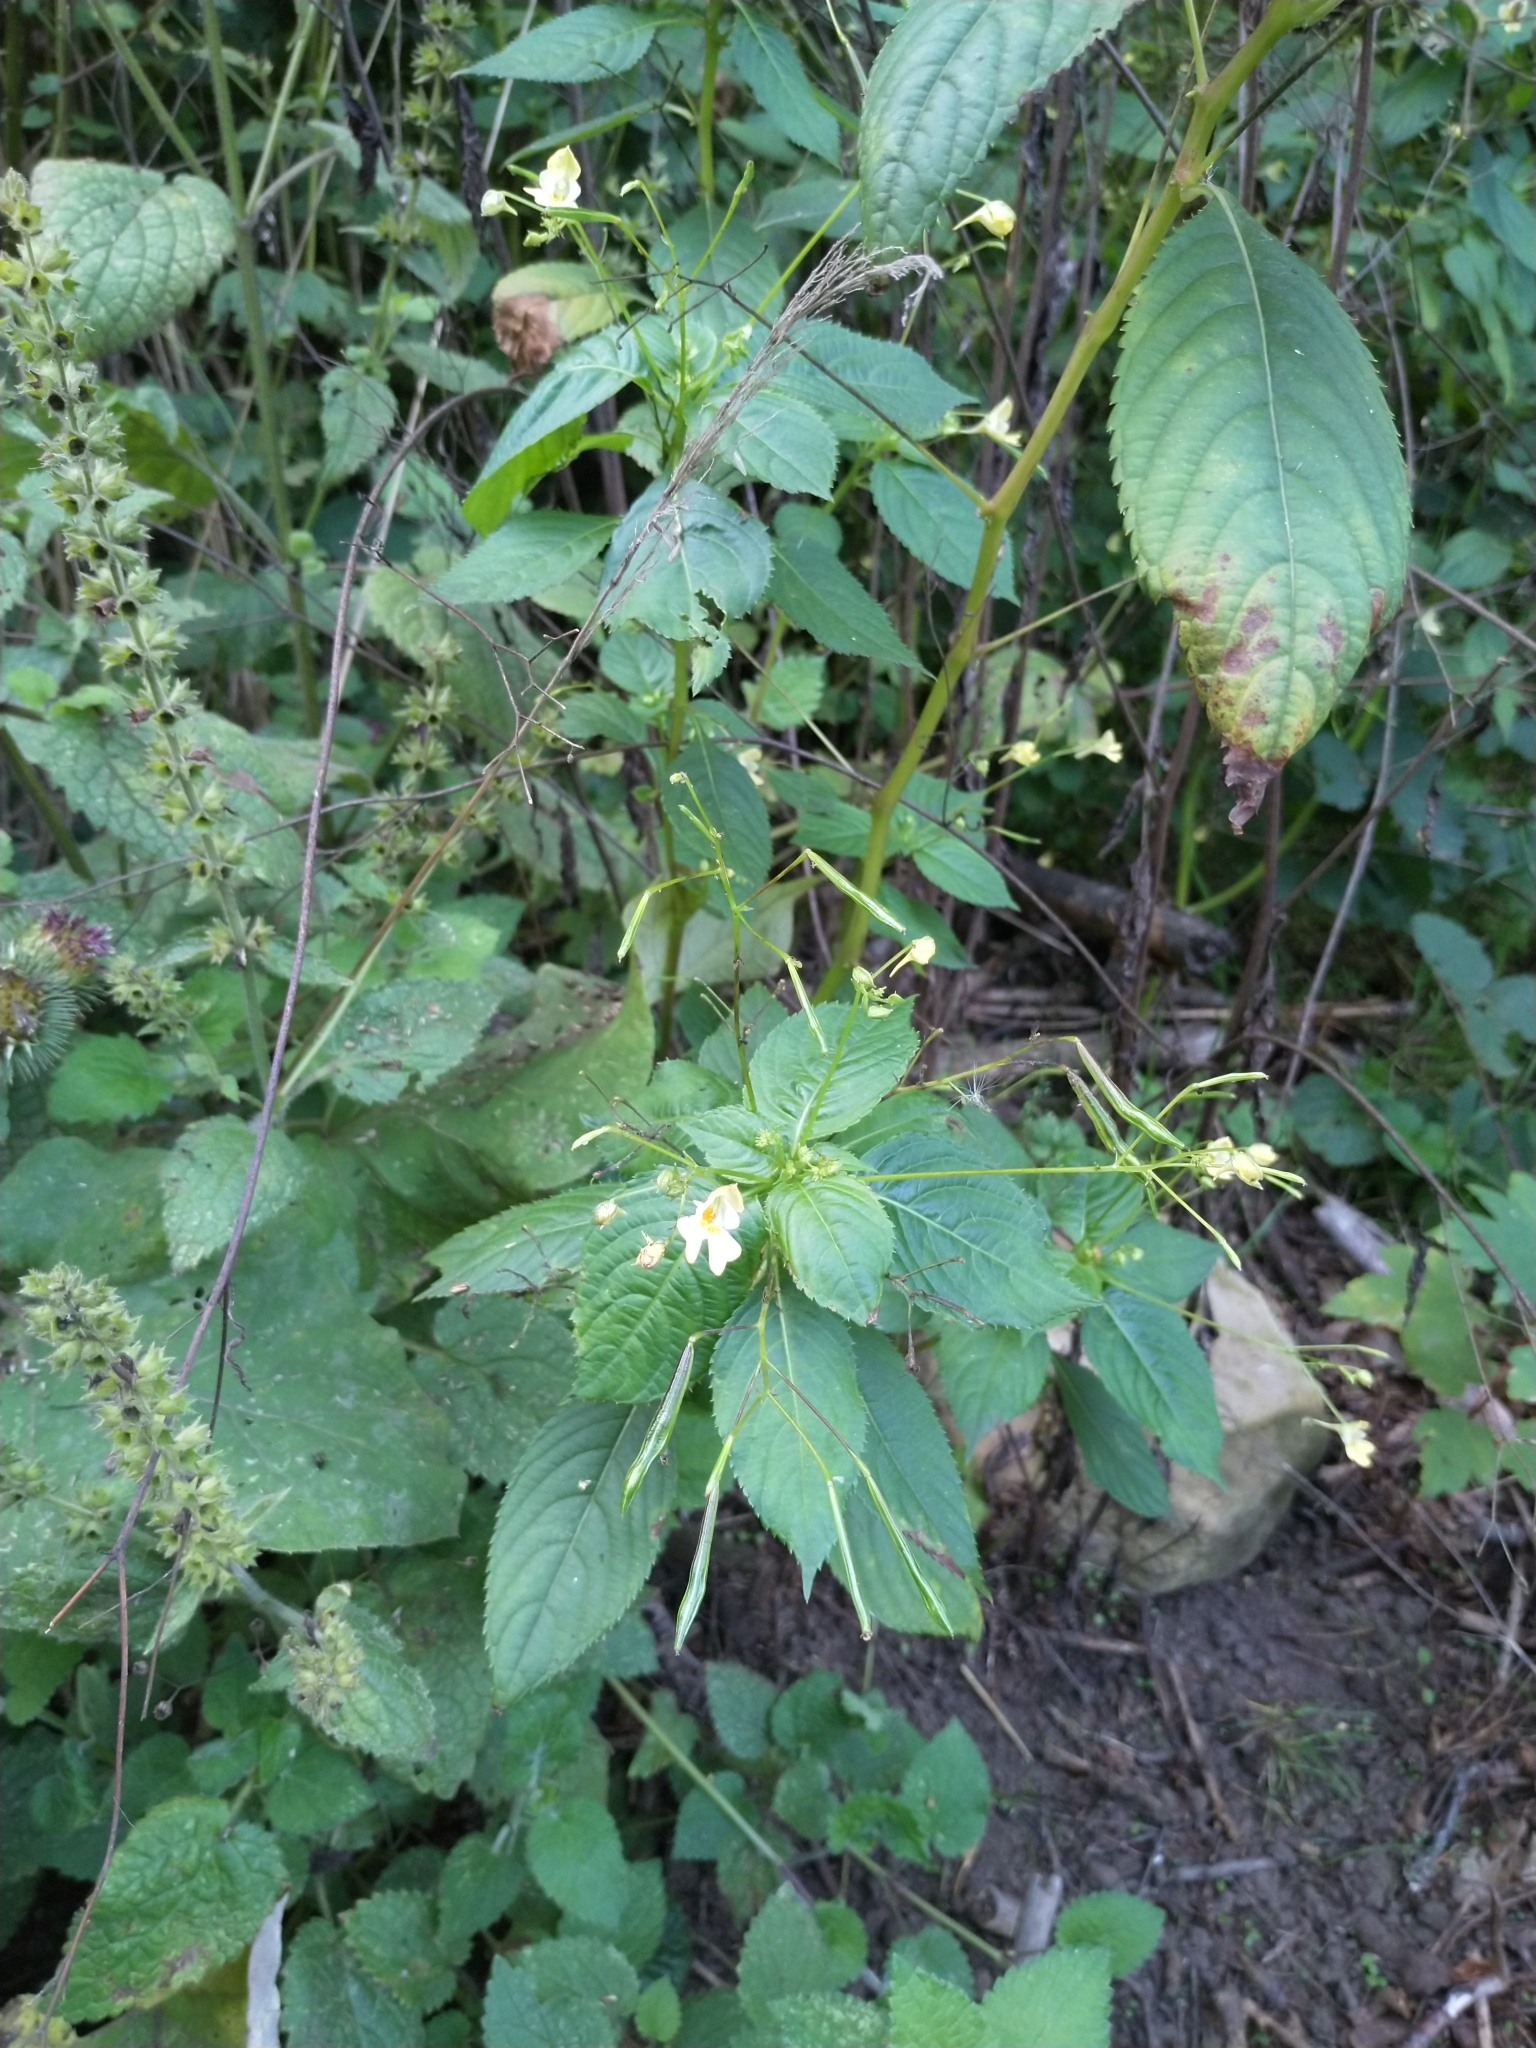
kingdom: Plantae
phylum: Tracheophyta
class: Magnoliopsida
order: Ericales
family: Balsaminaceae
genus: Impatiens
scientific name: Impatiens parviflora
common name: Small balsam
